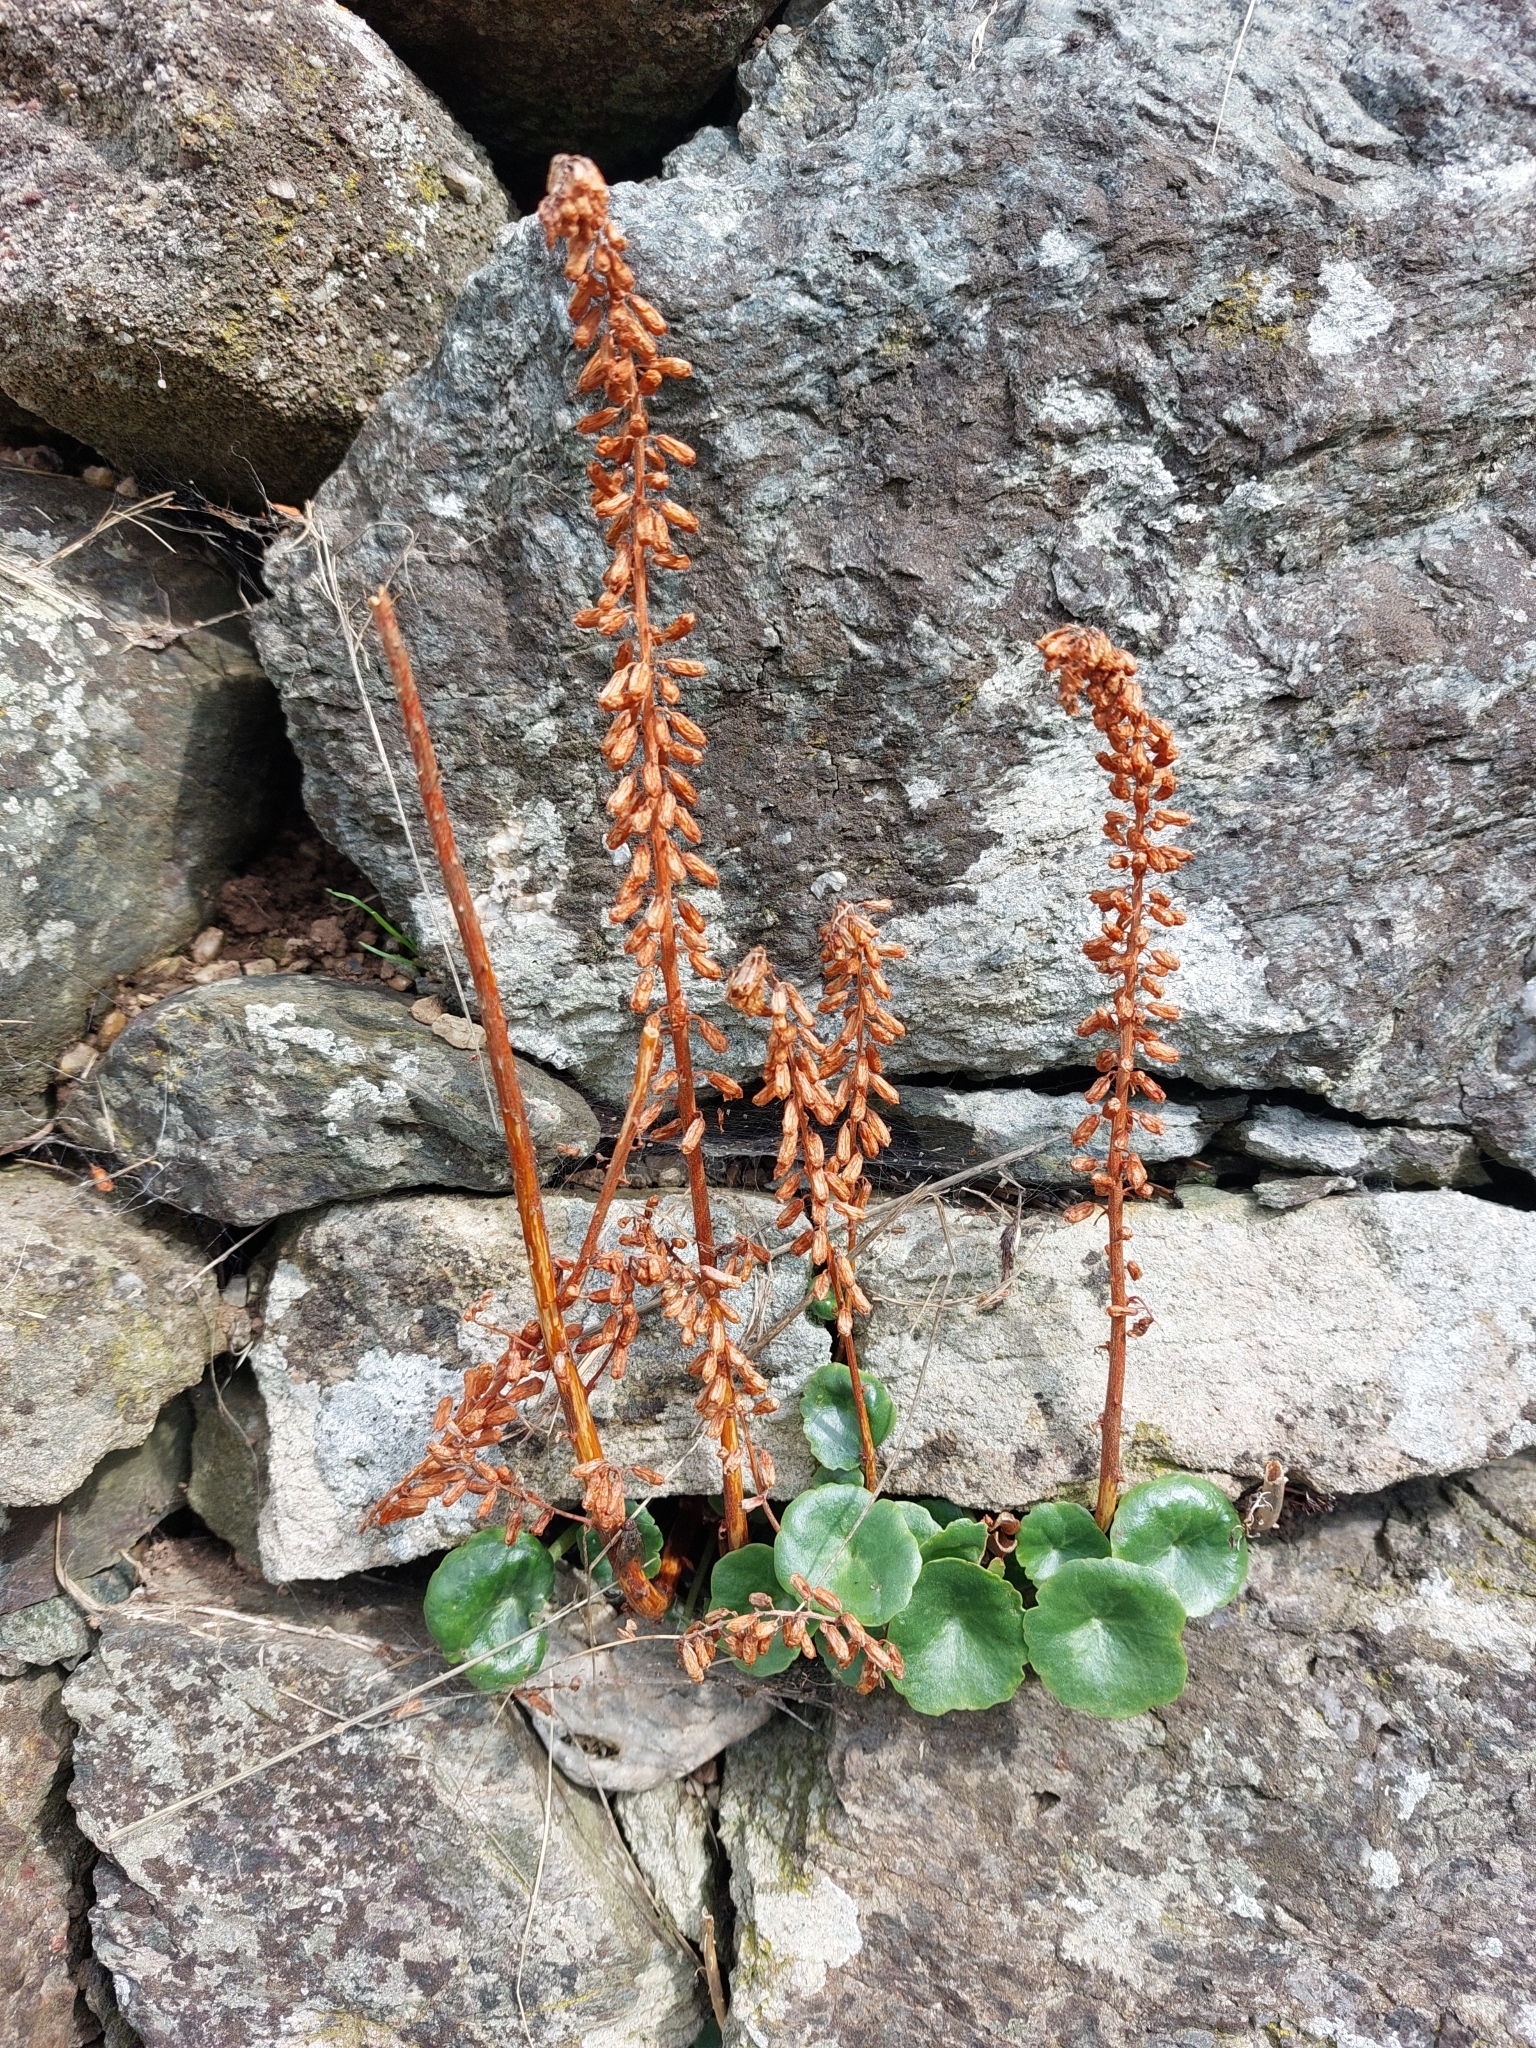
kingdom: Plantae
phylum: Tracheophyta
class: Magnoliopsida
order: Saxifragales
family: Crassulaceae
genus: Umbilicus
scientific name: Umbilicus rupestris
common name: Navelwort
